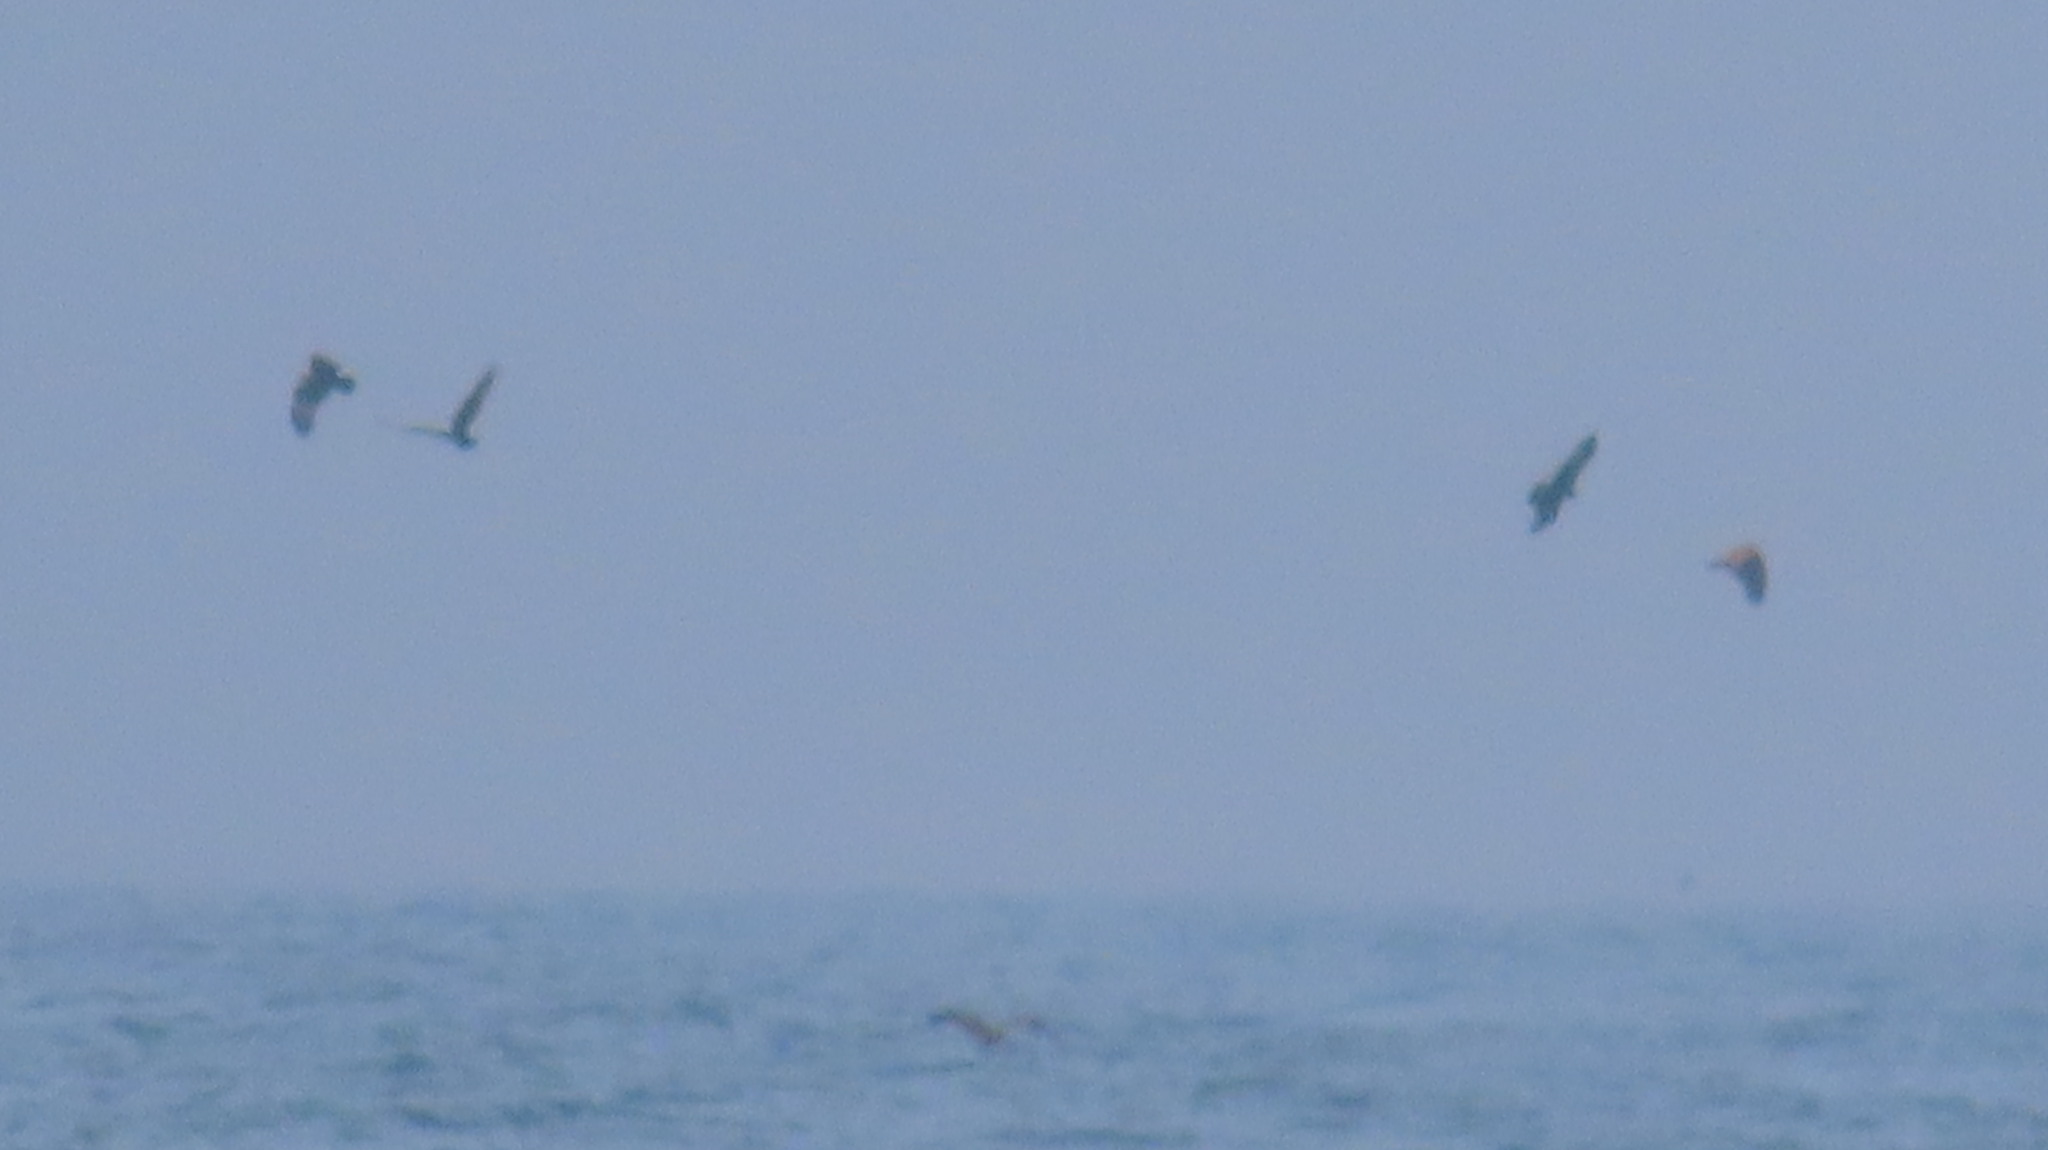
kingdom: Animalia
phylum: Chordata
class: Aves
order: Accipitriformes
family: Accipitridae
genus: Haliastur
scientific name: Haliastur indus
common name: Brahminy kite
